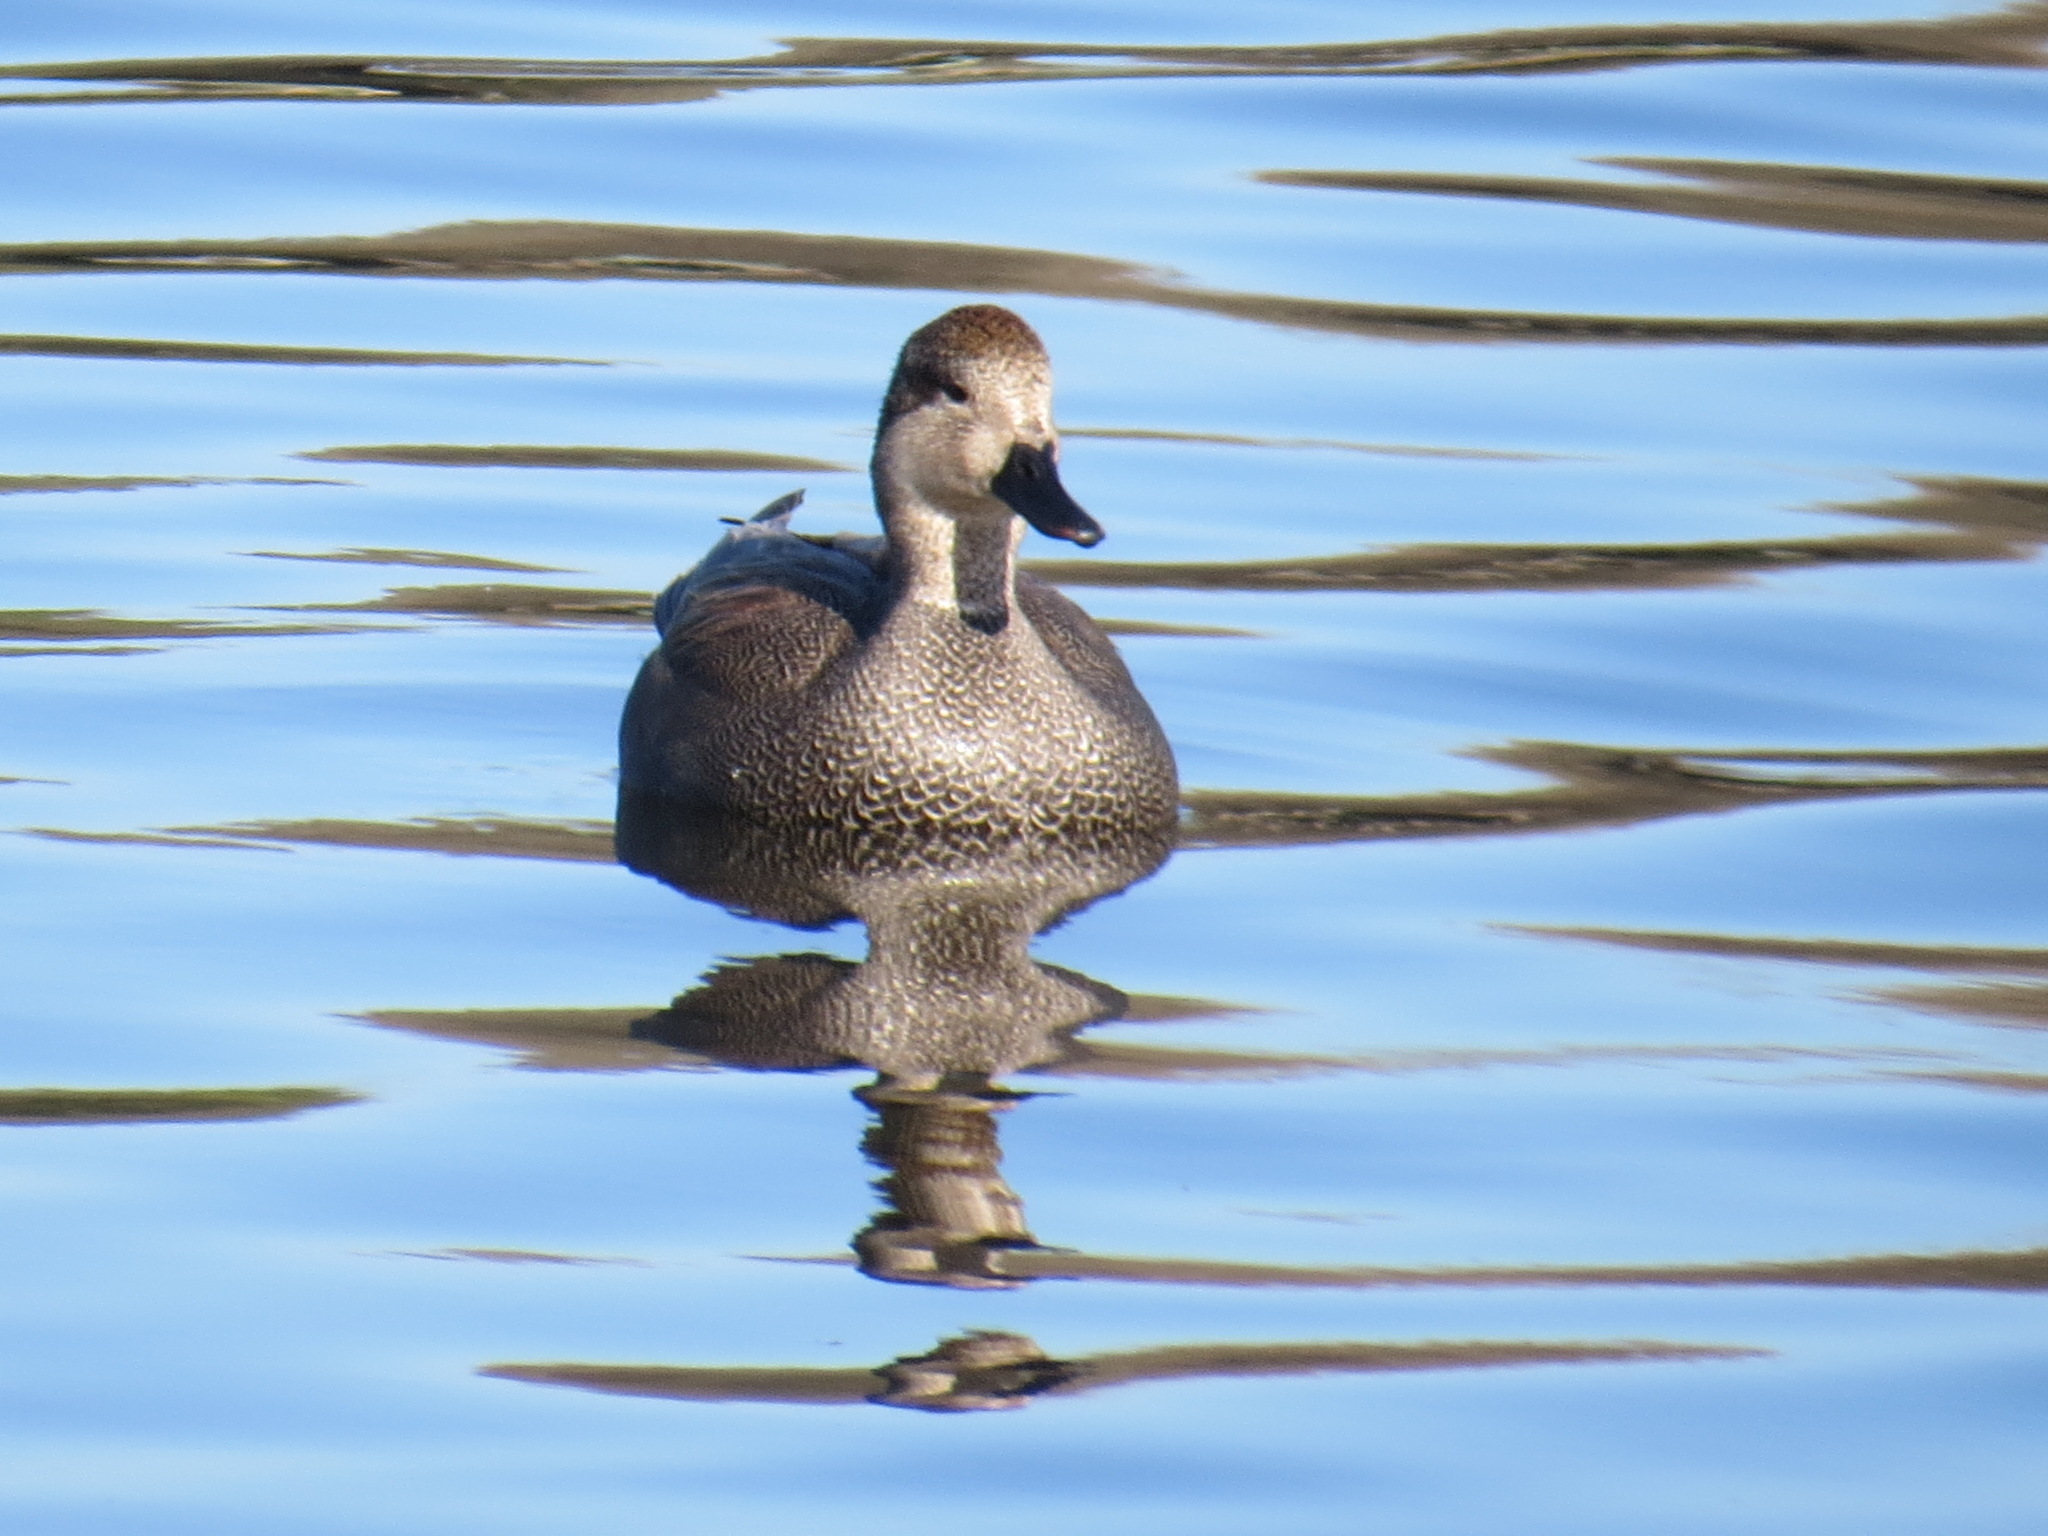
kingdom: Animalia
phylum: Chordata
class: Aves
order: Anseriformes
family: Anatidae
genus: Mareca
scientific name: Mareca strepera
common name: Gadwall
